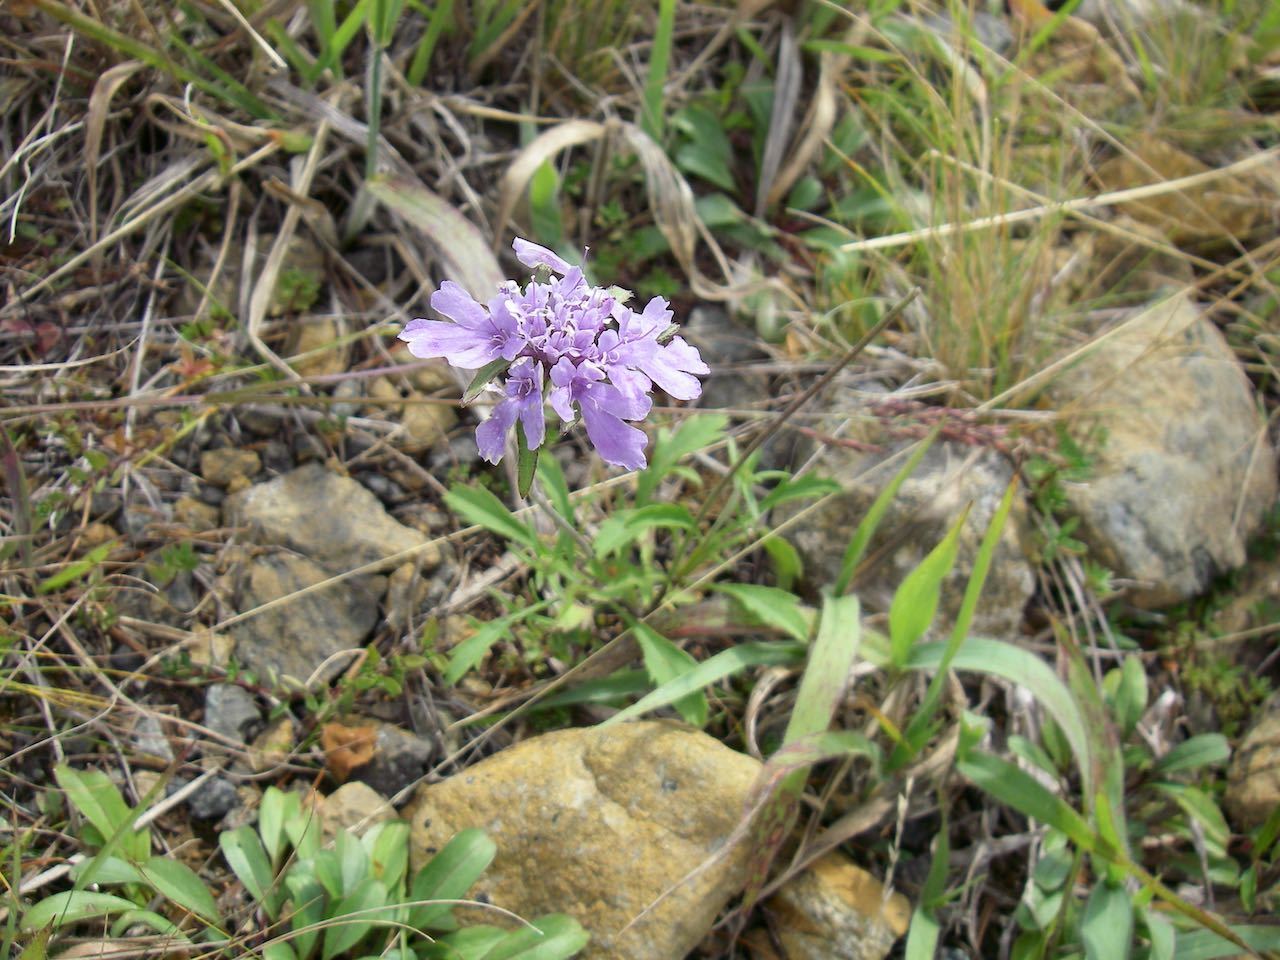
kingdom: Plantae
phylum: Tracheophyta
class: Magnoliopsida
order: Dipsacales
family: Caprifoliaceae
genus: Scabiosa
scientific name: Scabiosa japonica
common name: Pincushion-flower
